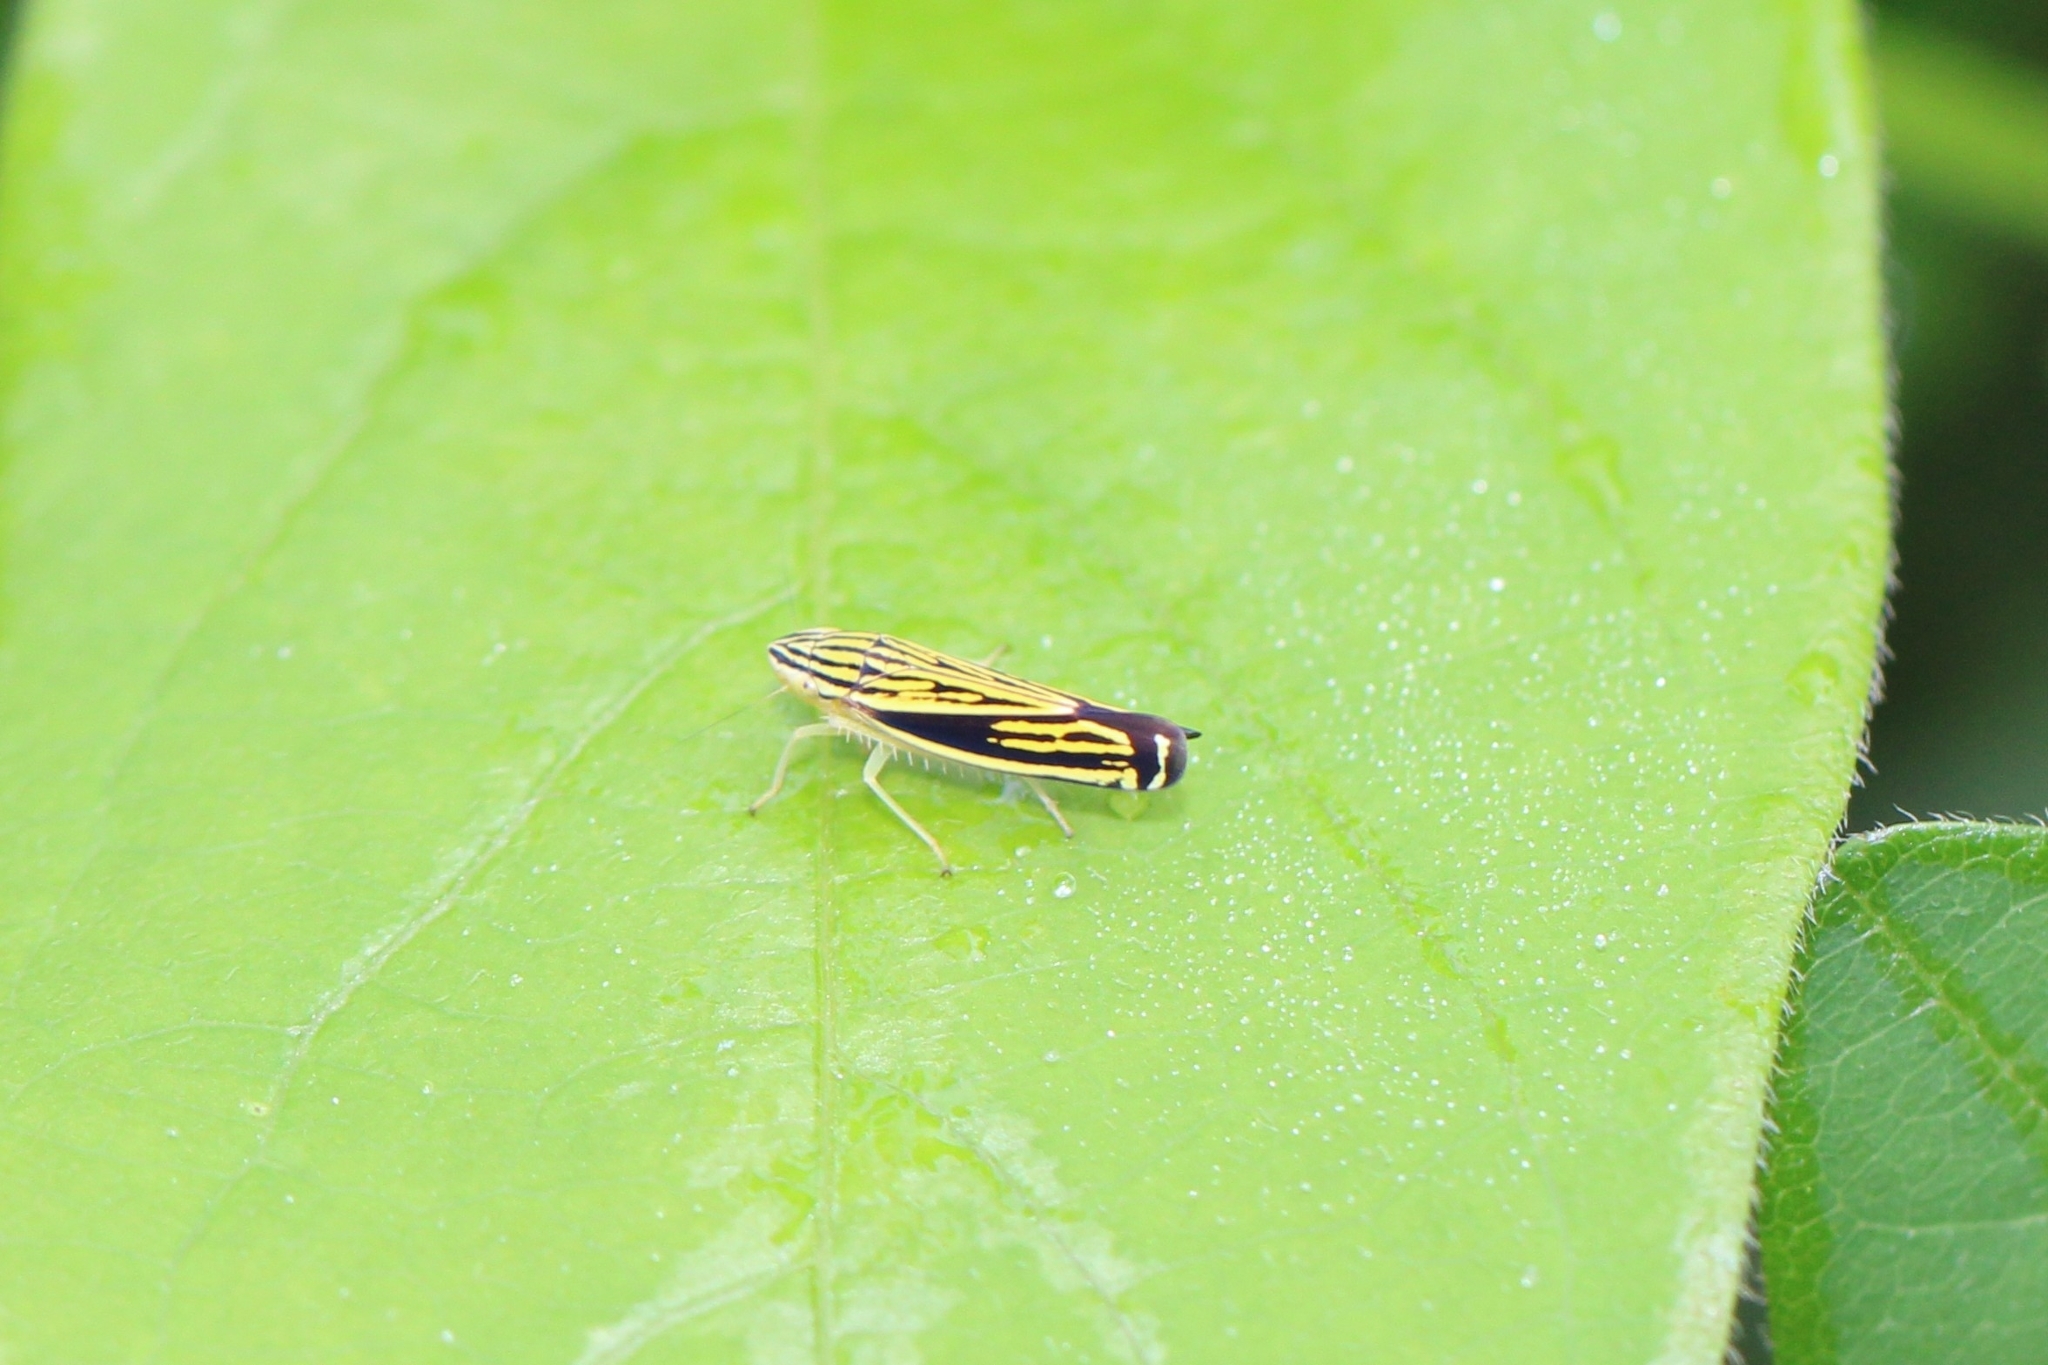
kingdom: Animalia
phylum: Arthropoda
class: Insecta
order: Hemiptera
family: Cicadellidae
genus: Sibovia
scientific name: Sibovia occatoria
